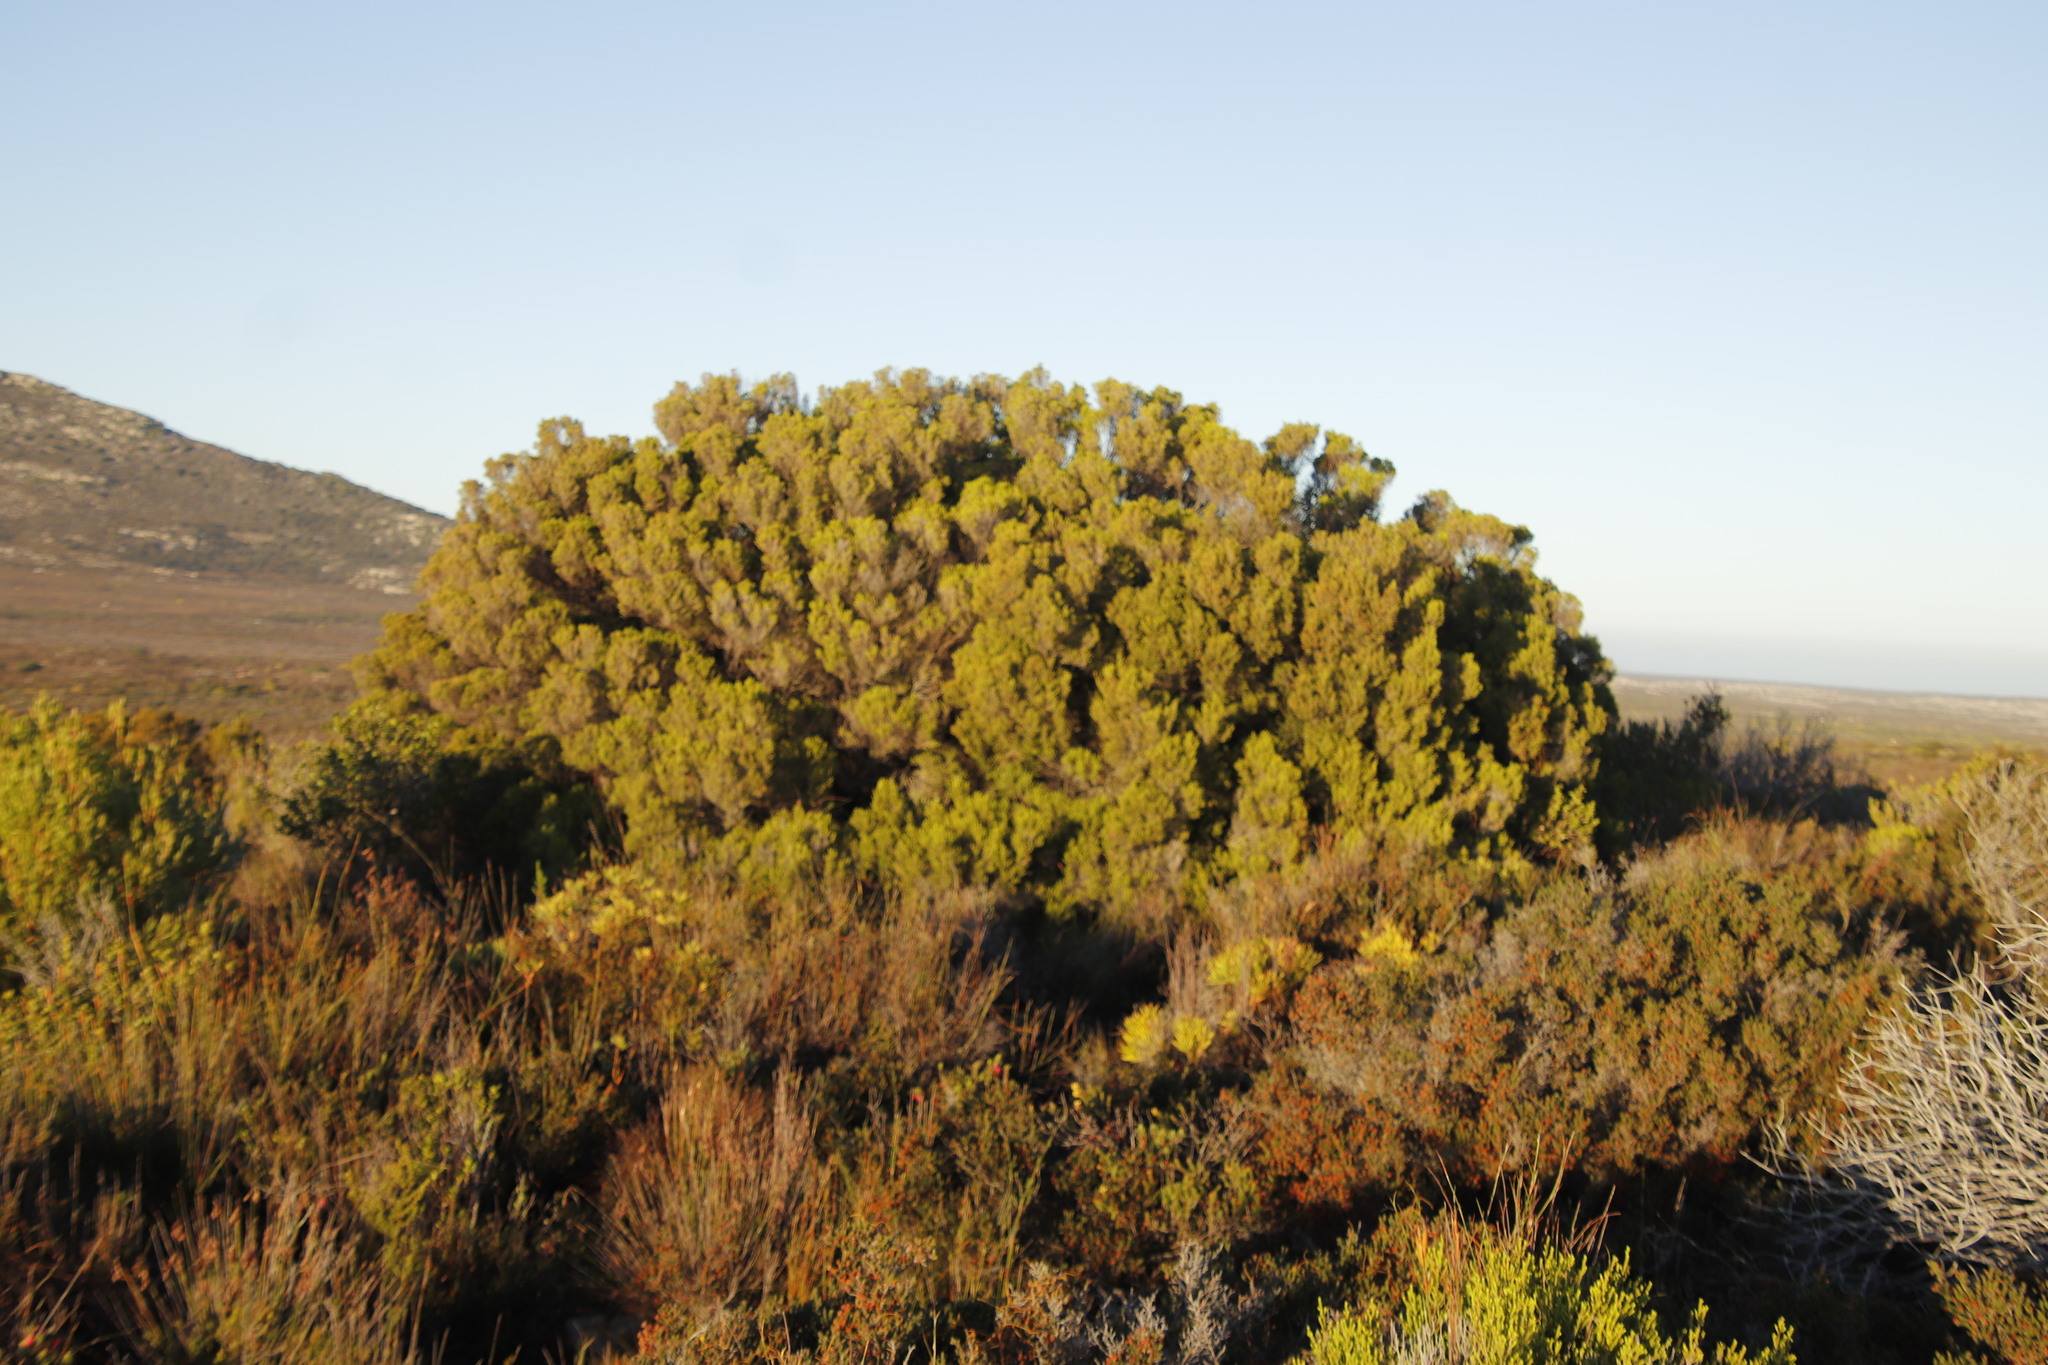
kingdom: Plantae
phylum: Tracheophyta
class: Magnoliopsida
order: Ericales
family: Ericaceae
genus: Erica
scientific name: Erica tristis
